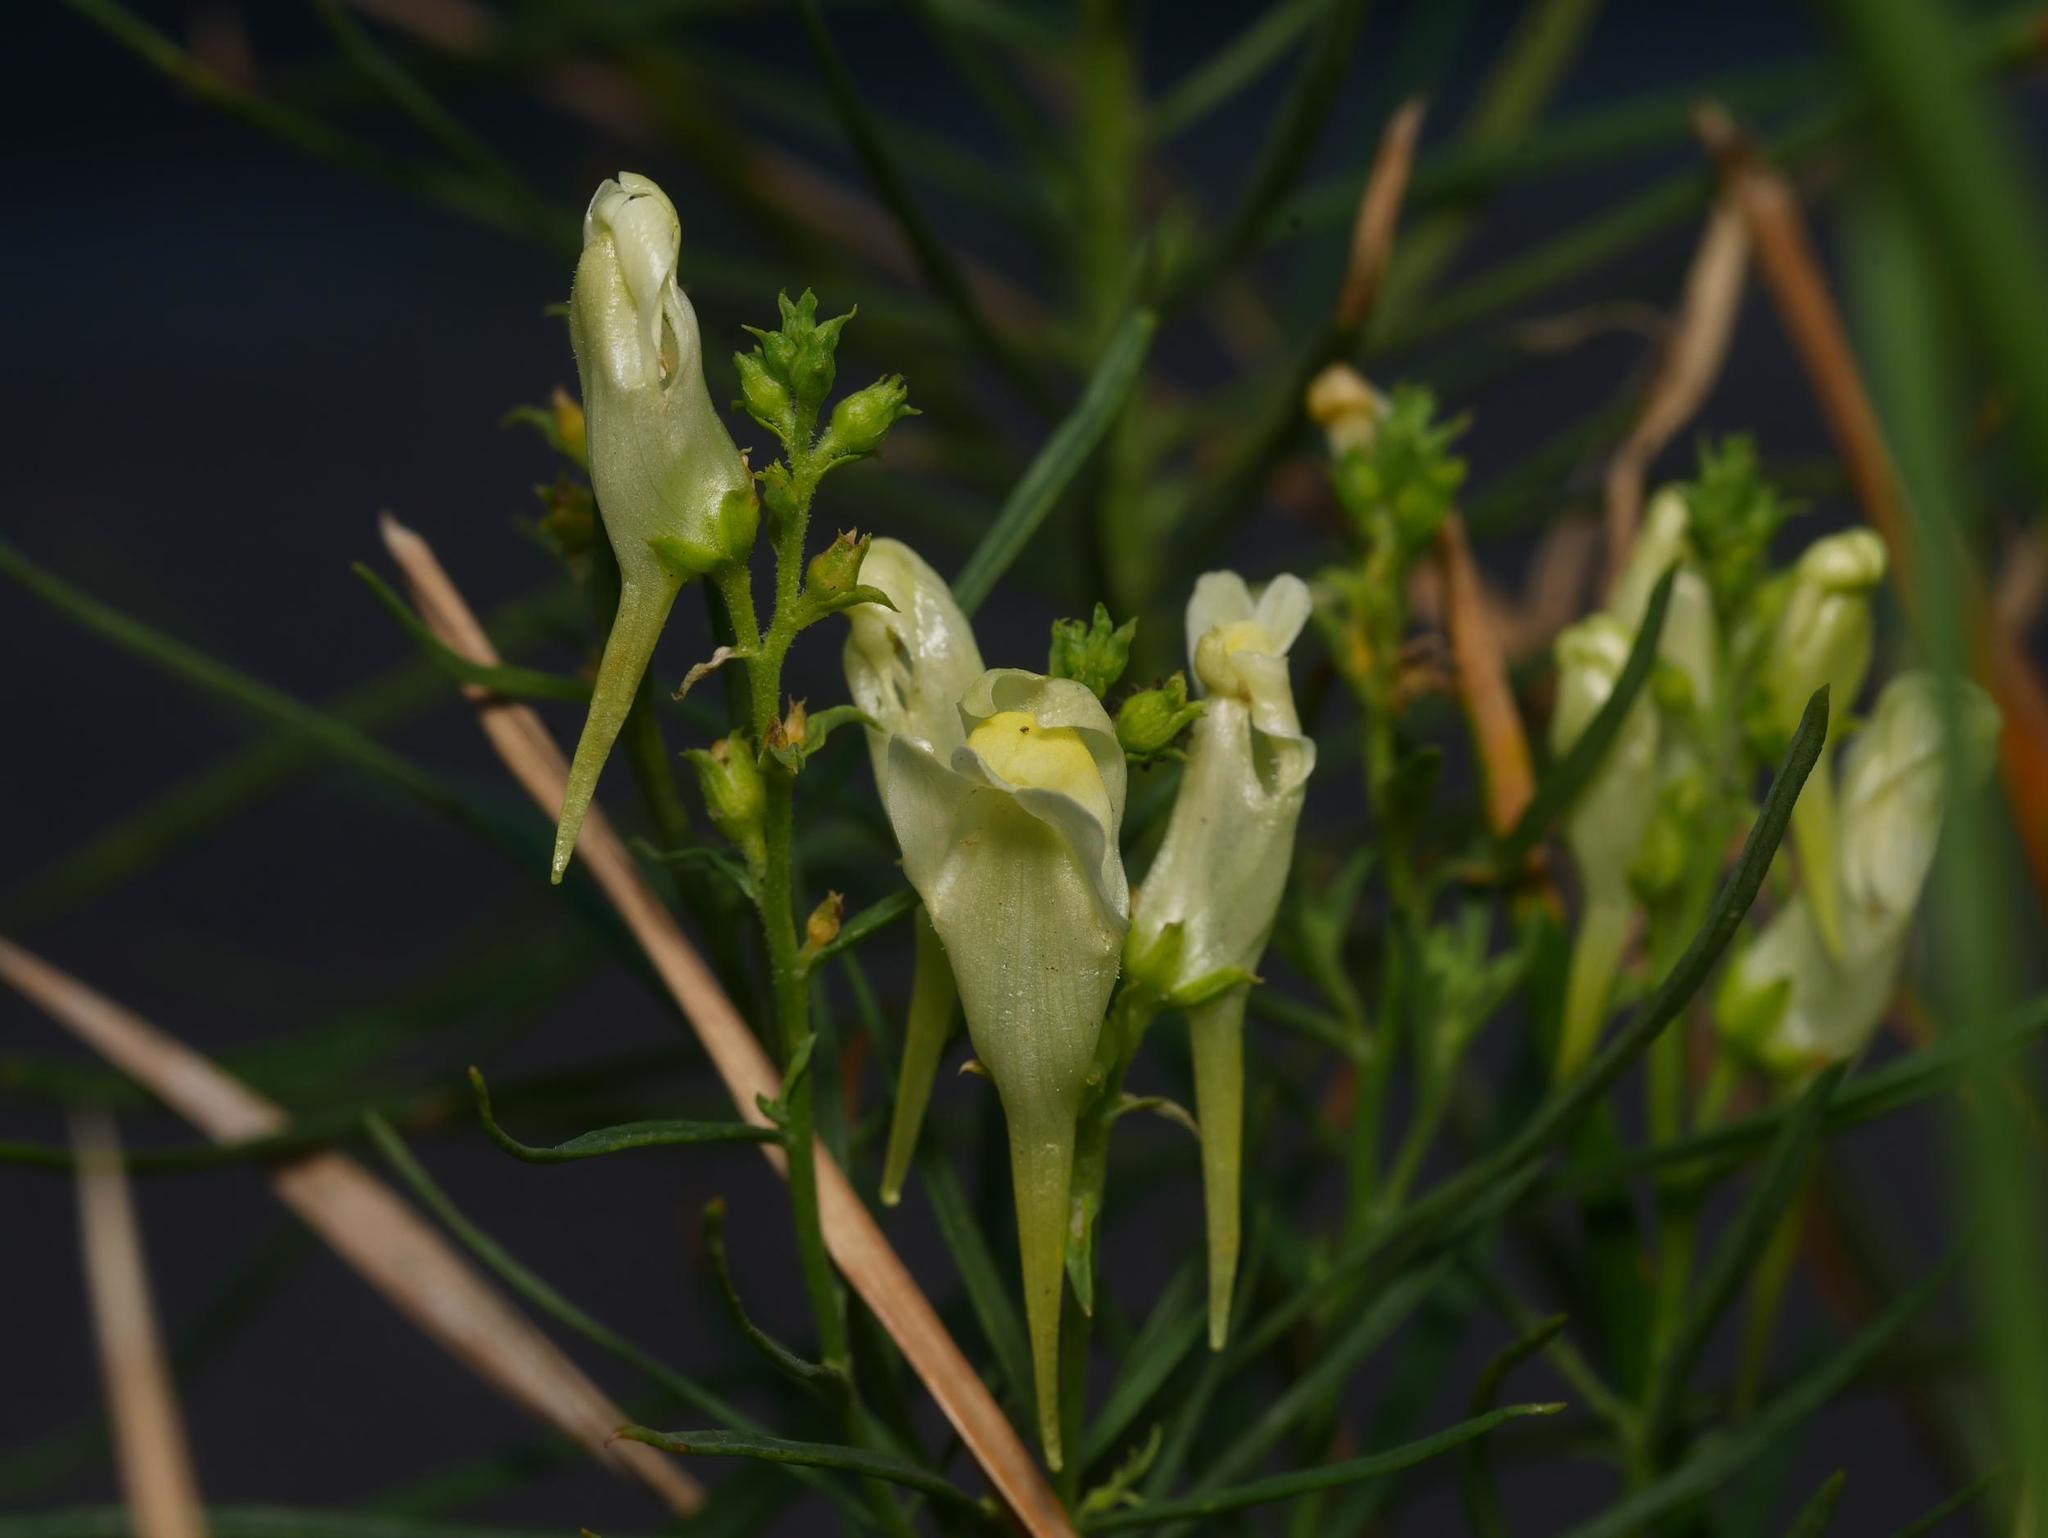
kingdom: Plantae
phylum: Tracheophyta
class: Magnoliopsida
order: Lamiales
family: Plantaginaceae
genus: Linaria
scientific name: Linaria vulgaris
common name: Butter and eggs
